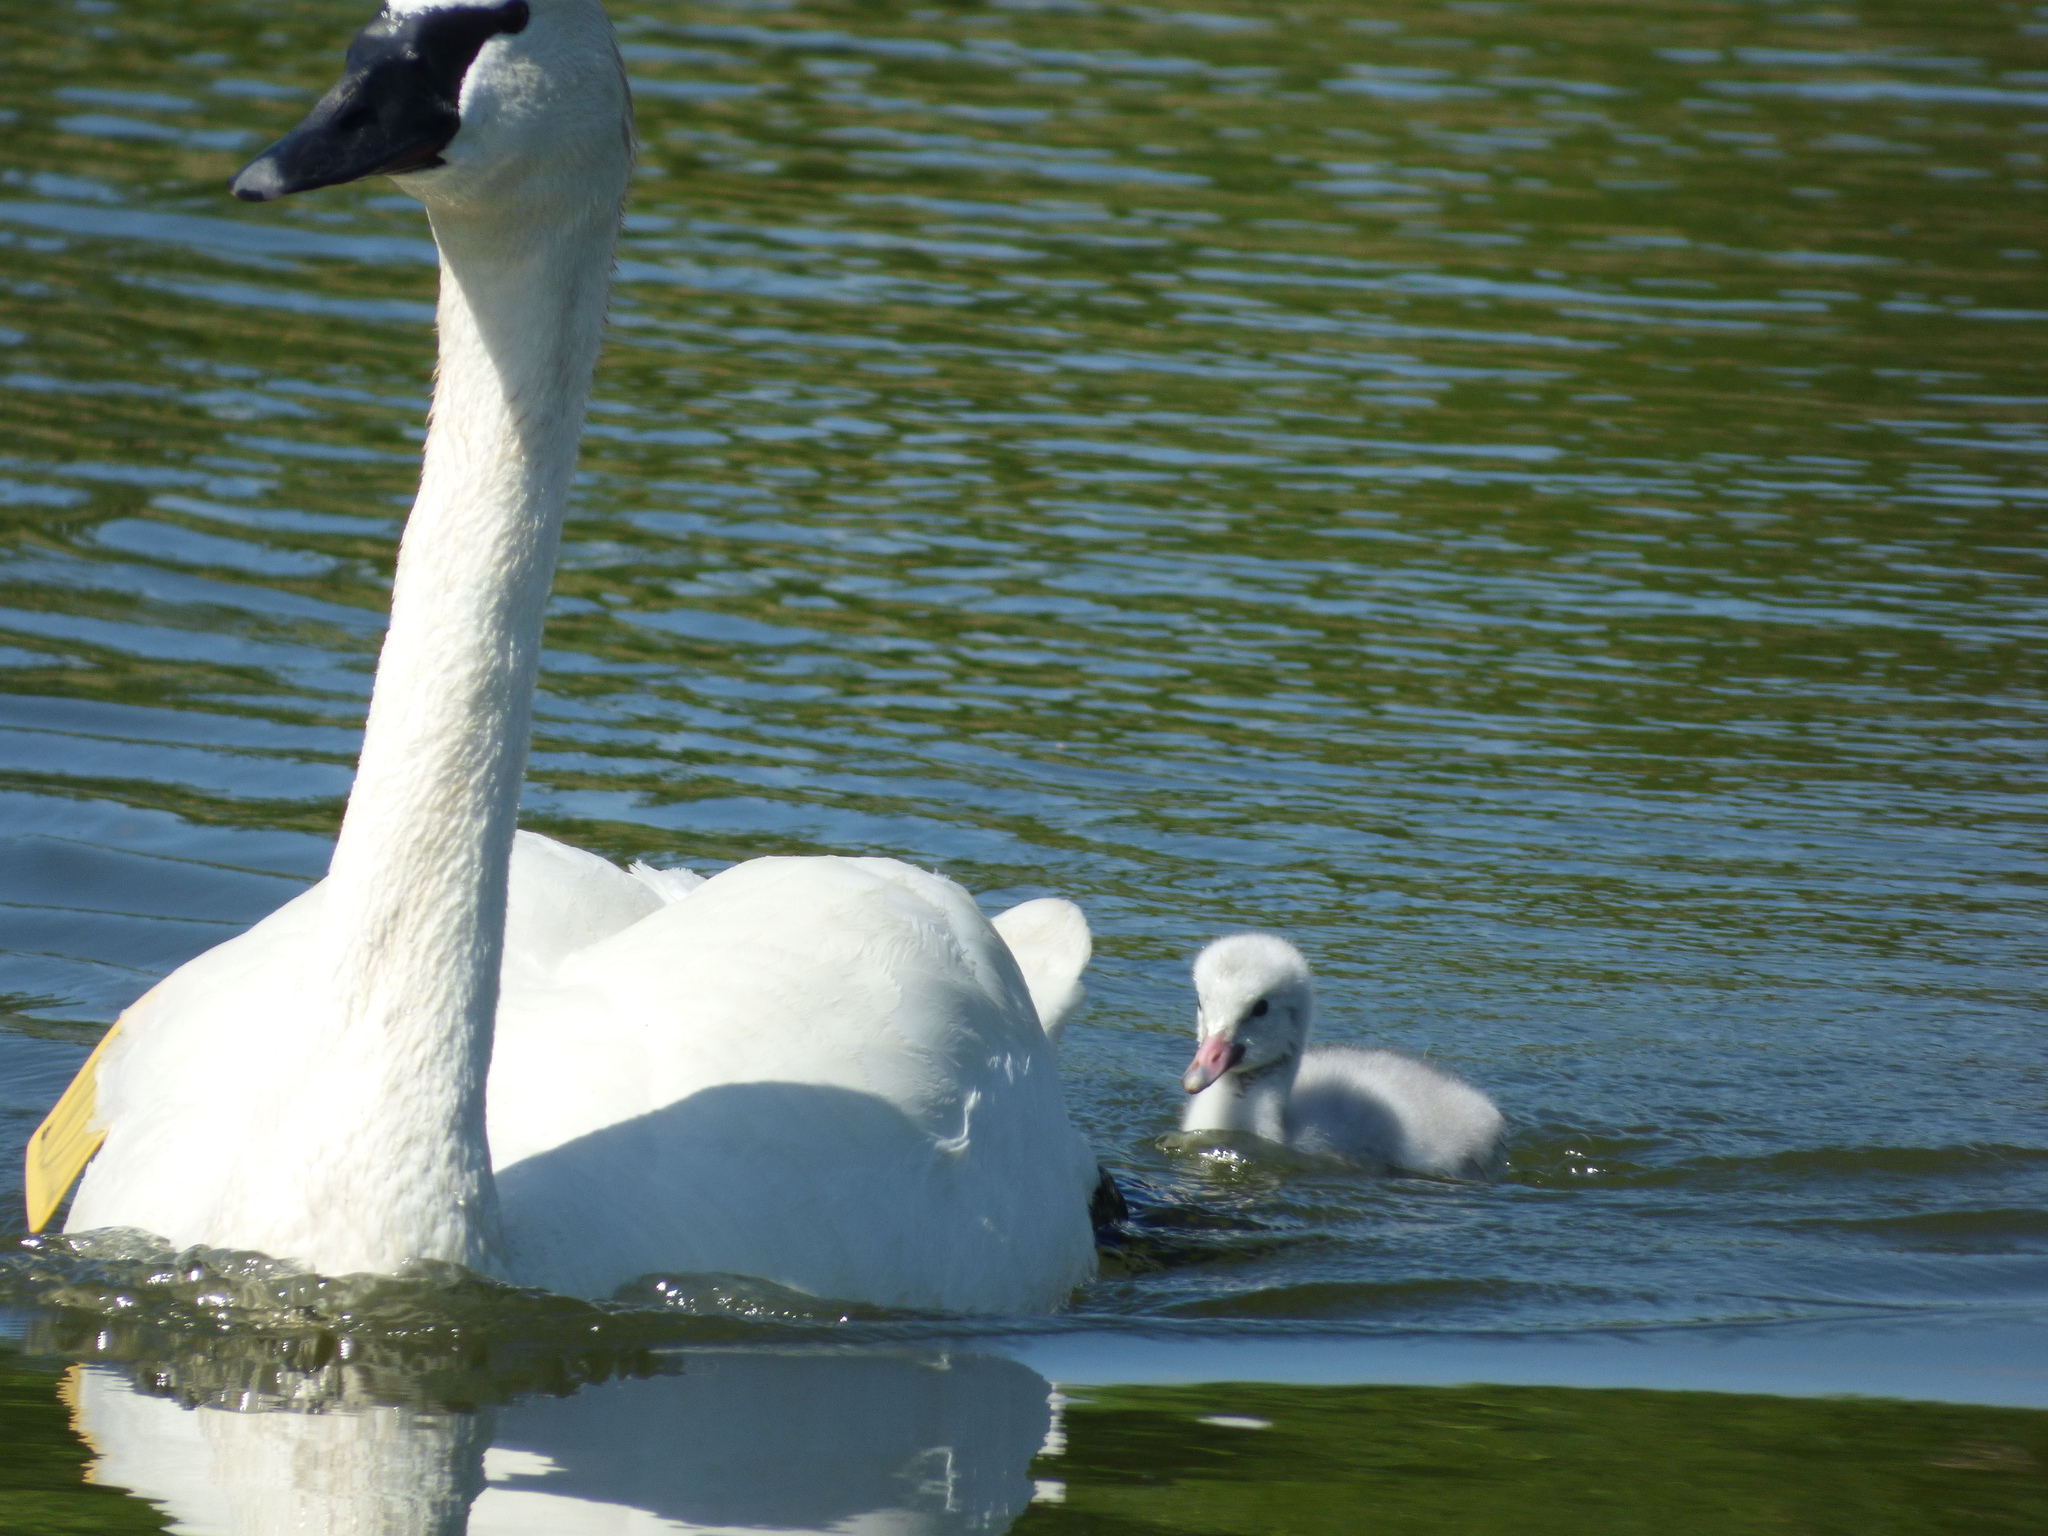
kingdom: Animalia
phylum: Chordata
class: Aves
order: Anseriformes
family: Anatidae
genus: Cygnus
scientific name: Cygnus buccinator
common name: Trumpeter swan
